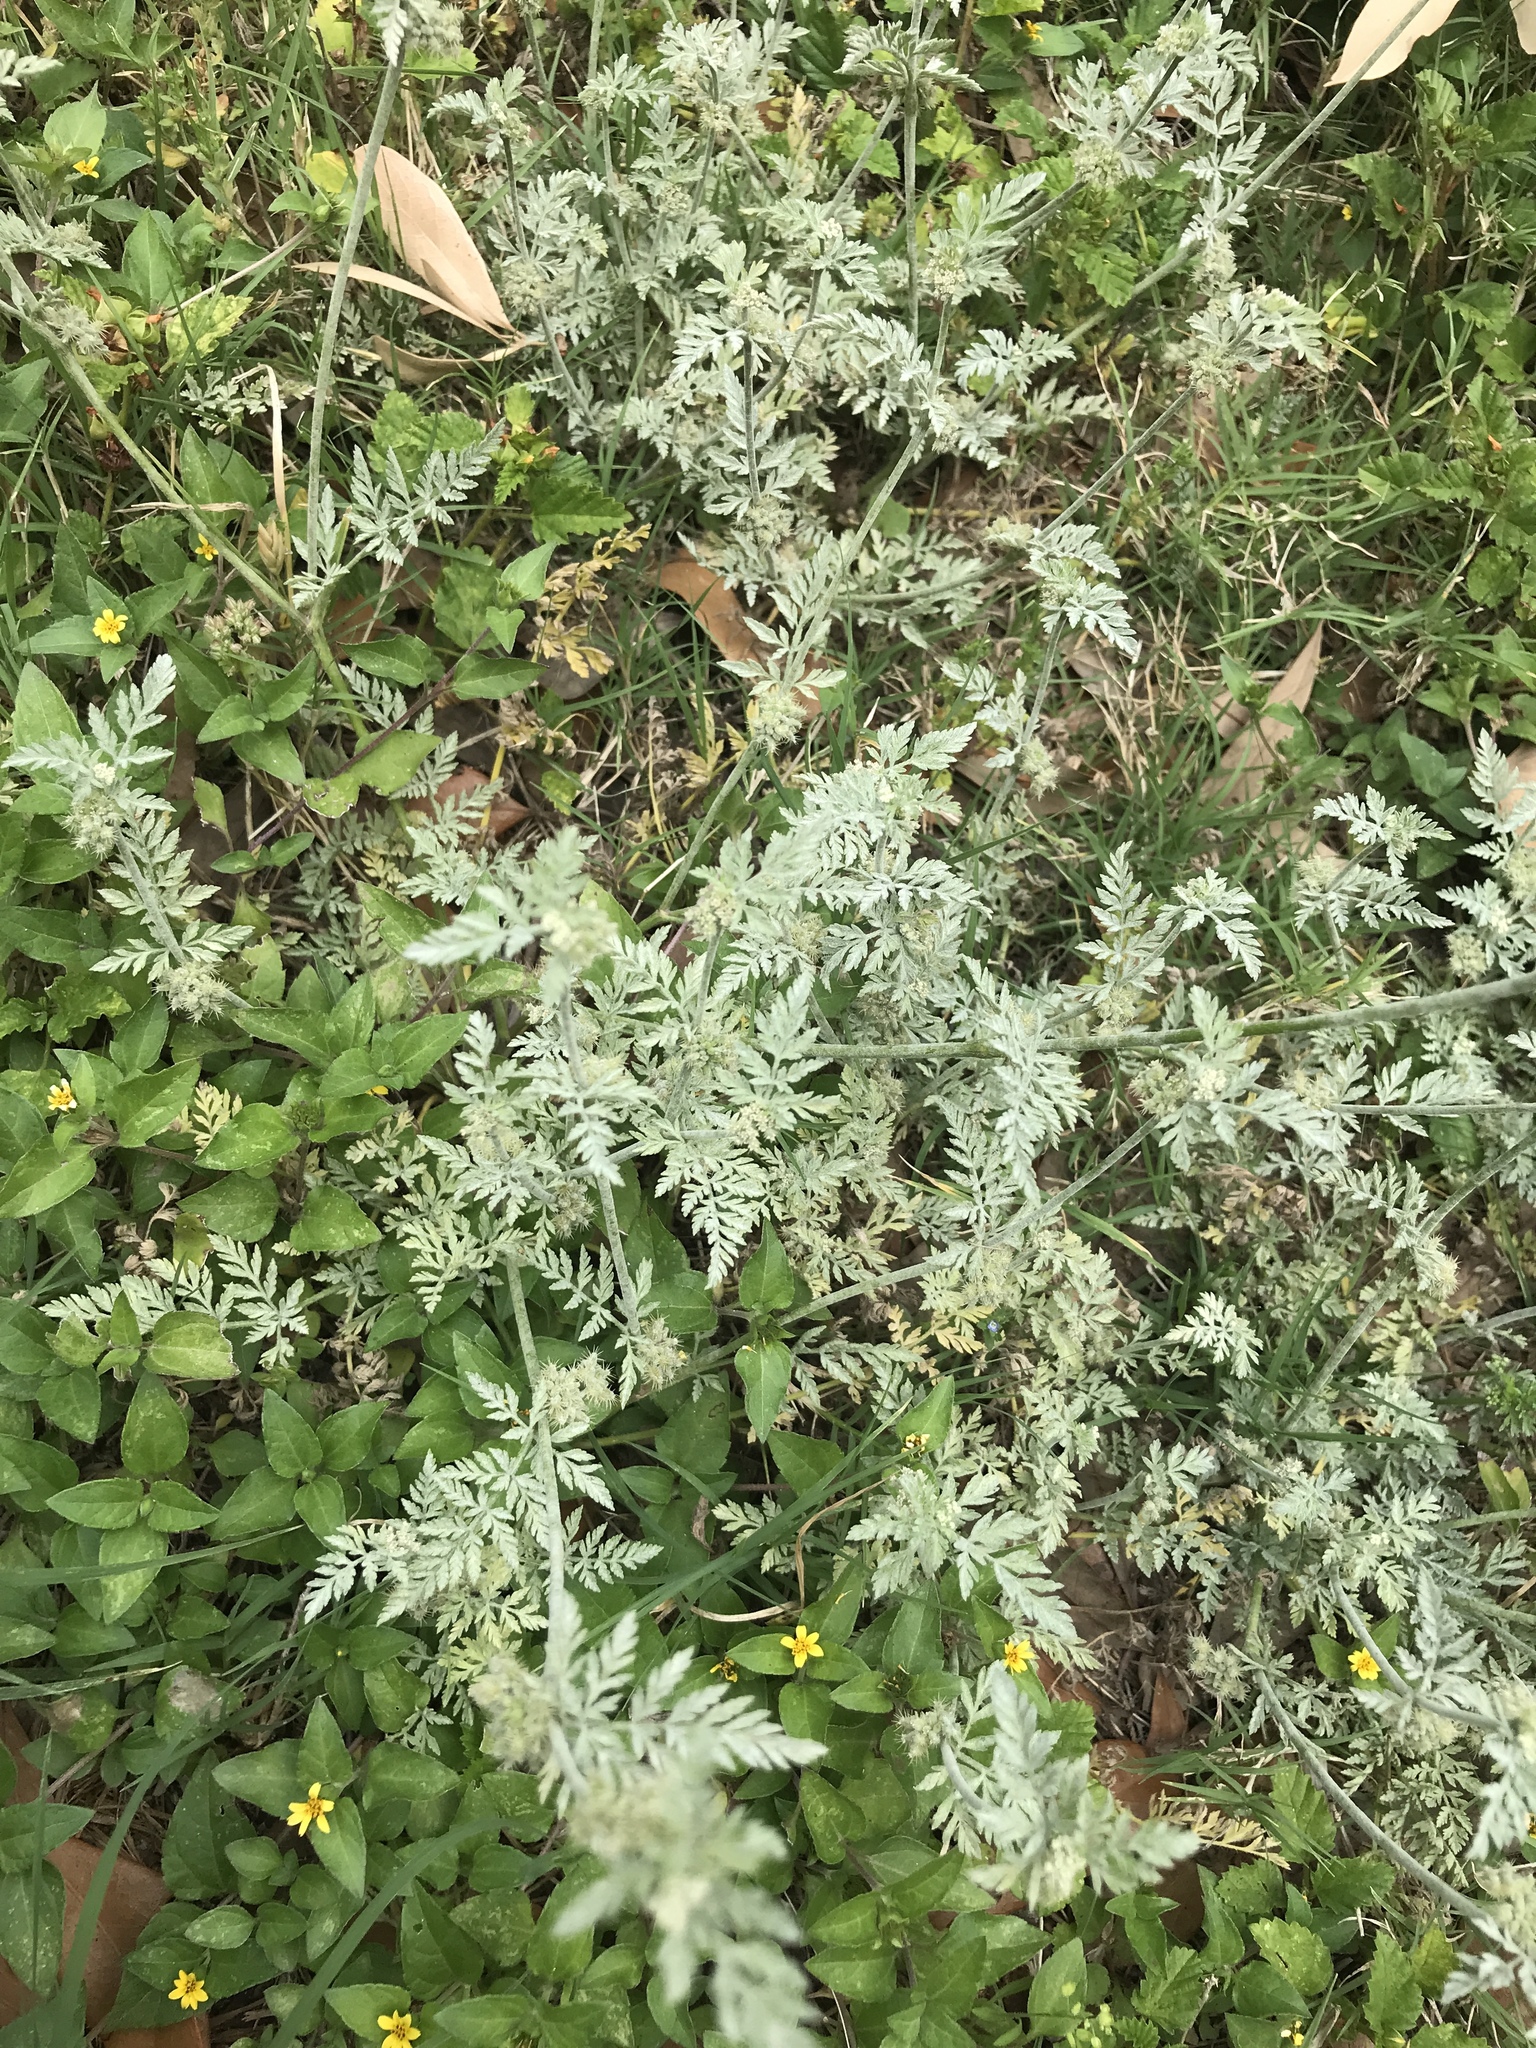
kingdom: Plantae
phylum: Tracheophyta
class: Magnoliopsida
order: Apiales
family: Apiaceae
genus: Torilis
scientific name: Torilis nodosa
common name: Knotted hedge-parsley
